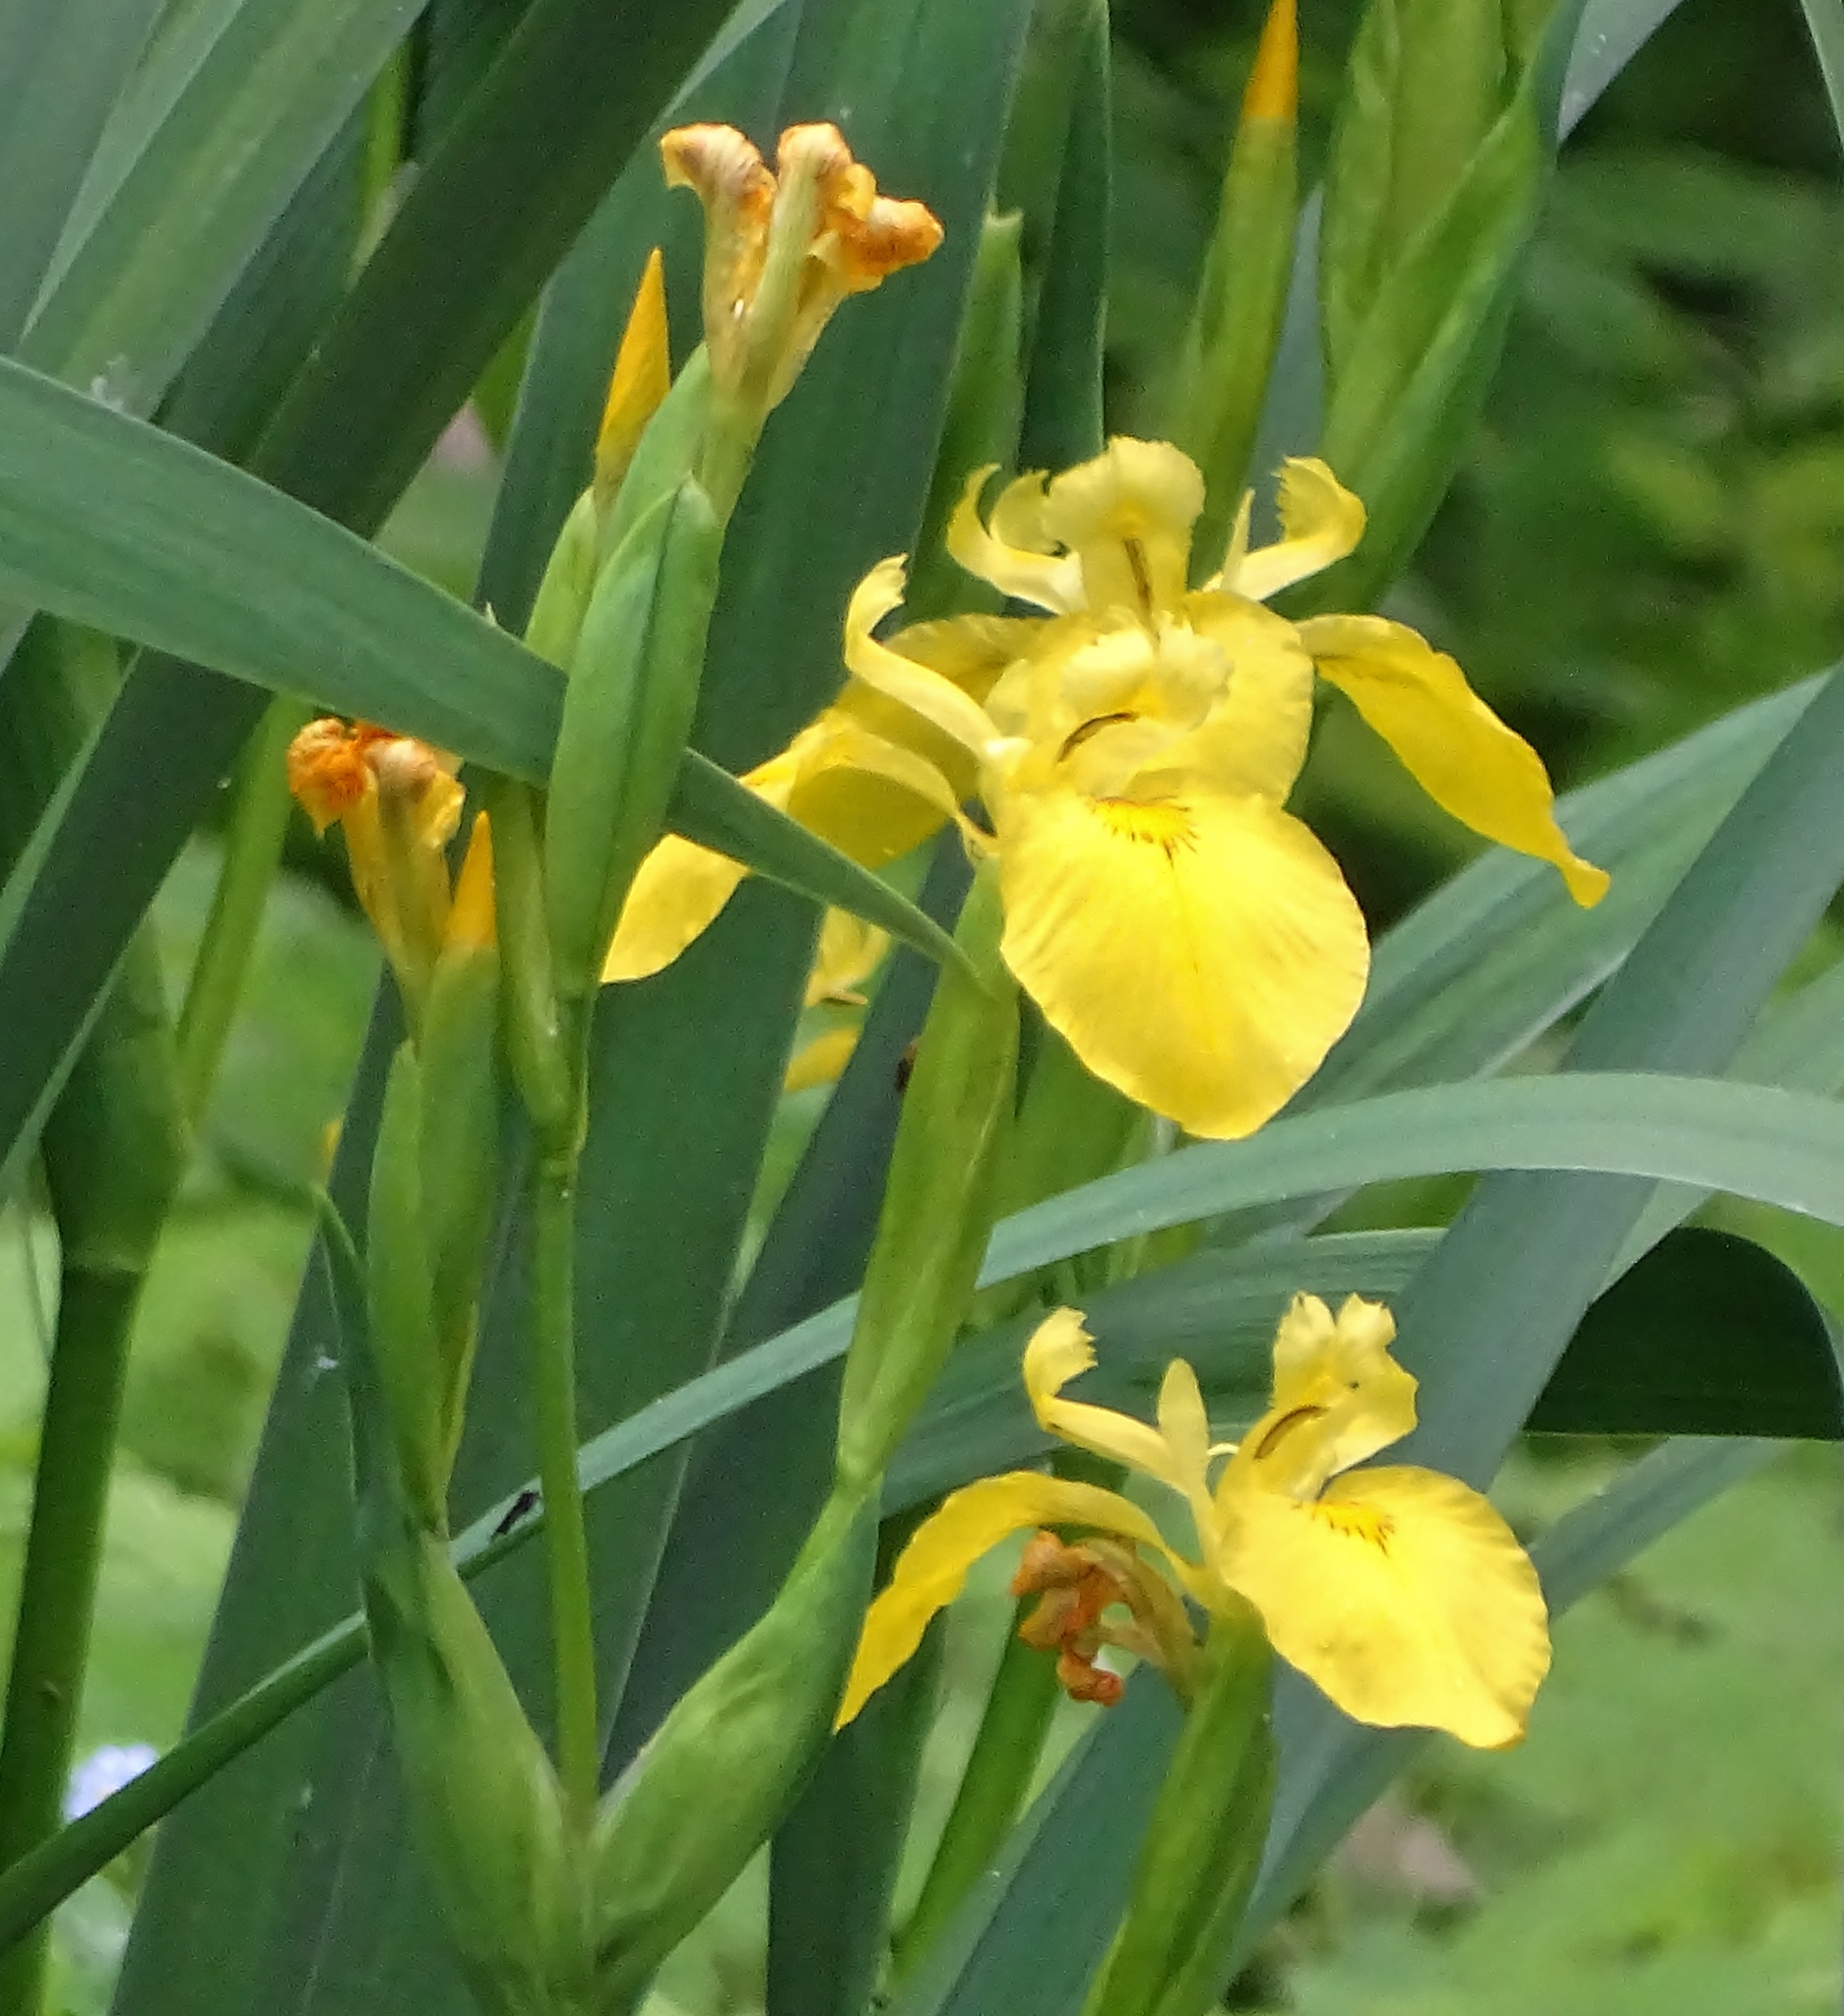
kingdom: Plantae
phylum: Tracheophyta
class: Liliopsida
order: Asparagales
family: Iridaceae
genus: Iris
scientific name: Iris pseudacorus
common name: Yellow flag
